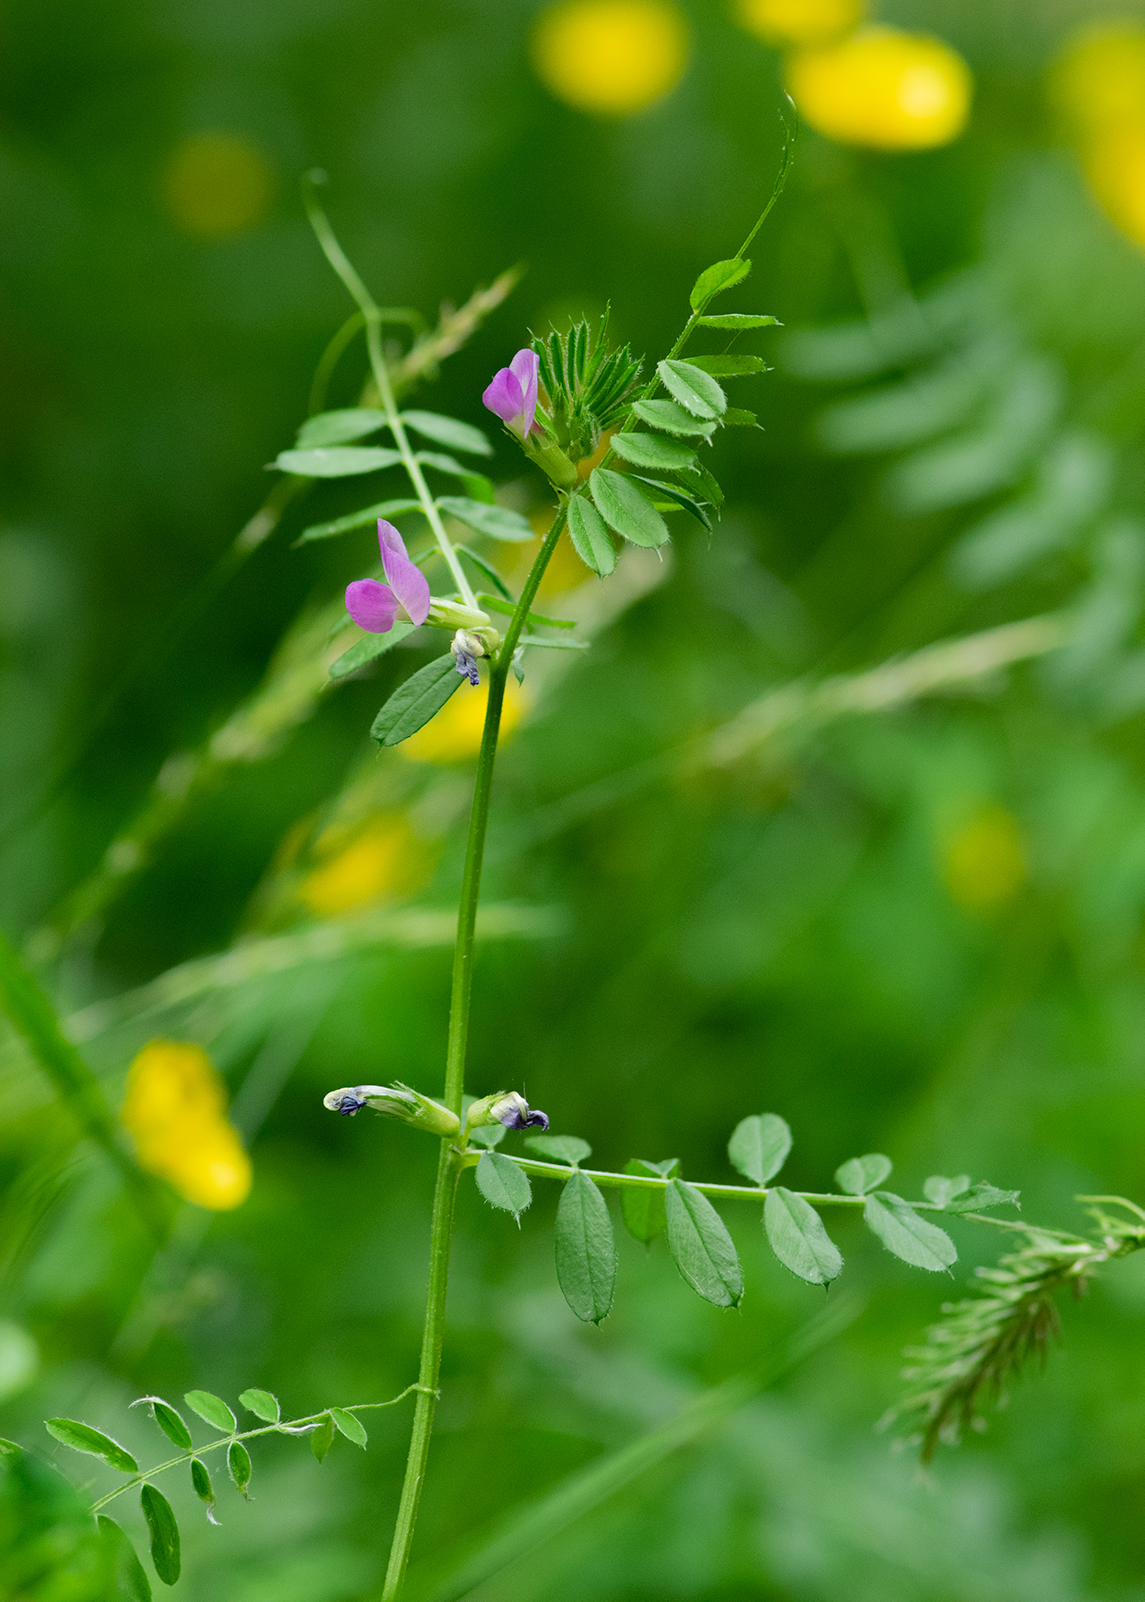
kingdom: Plantae
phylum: Tracheophyta
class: Magnoliopsida
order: Fabales
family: Fabaceae
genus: Vicia
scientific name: Vicia sativa
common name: Garden vetch
